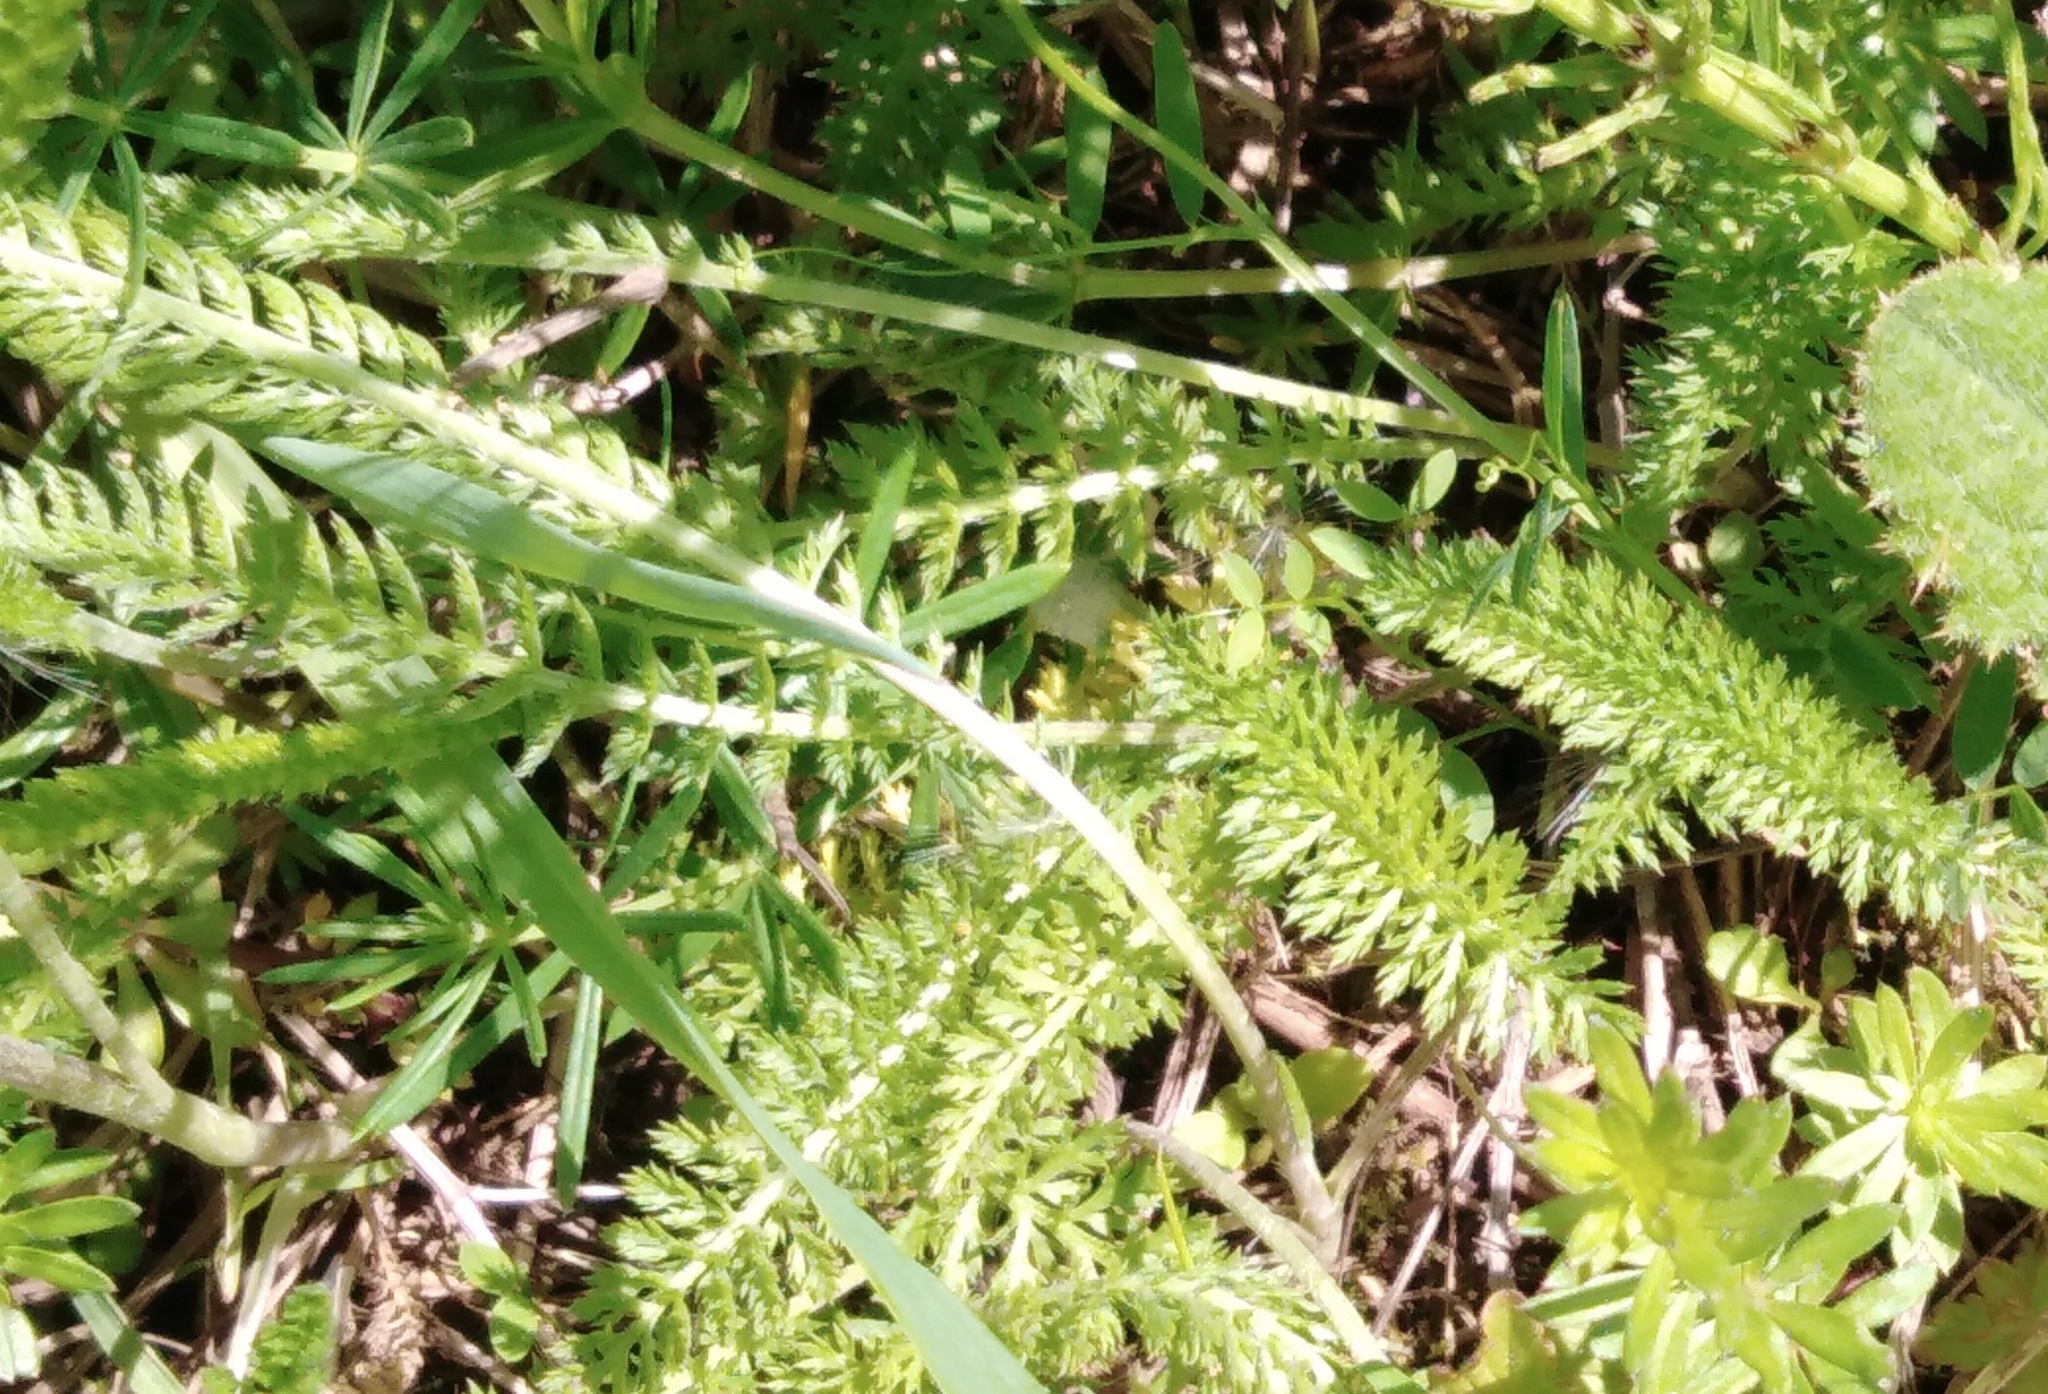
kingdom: Plantae
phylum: Tracheophyta
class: Magnoliopsida
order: Asterales
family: Asteraceae
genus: Achillea
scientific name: Achillea millefolium
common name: Yarrow
